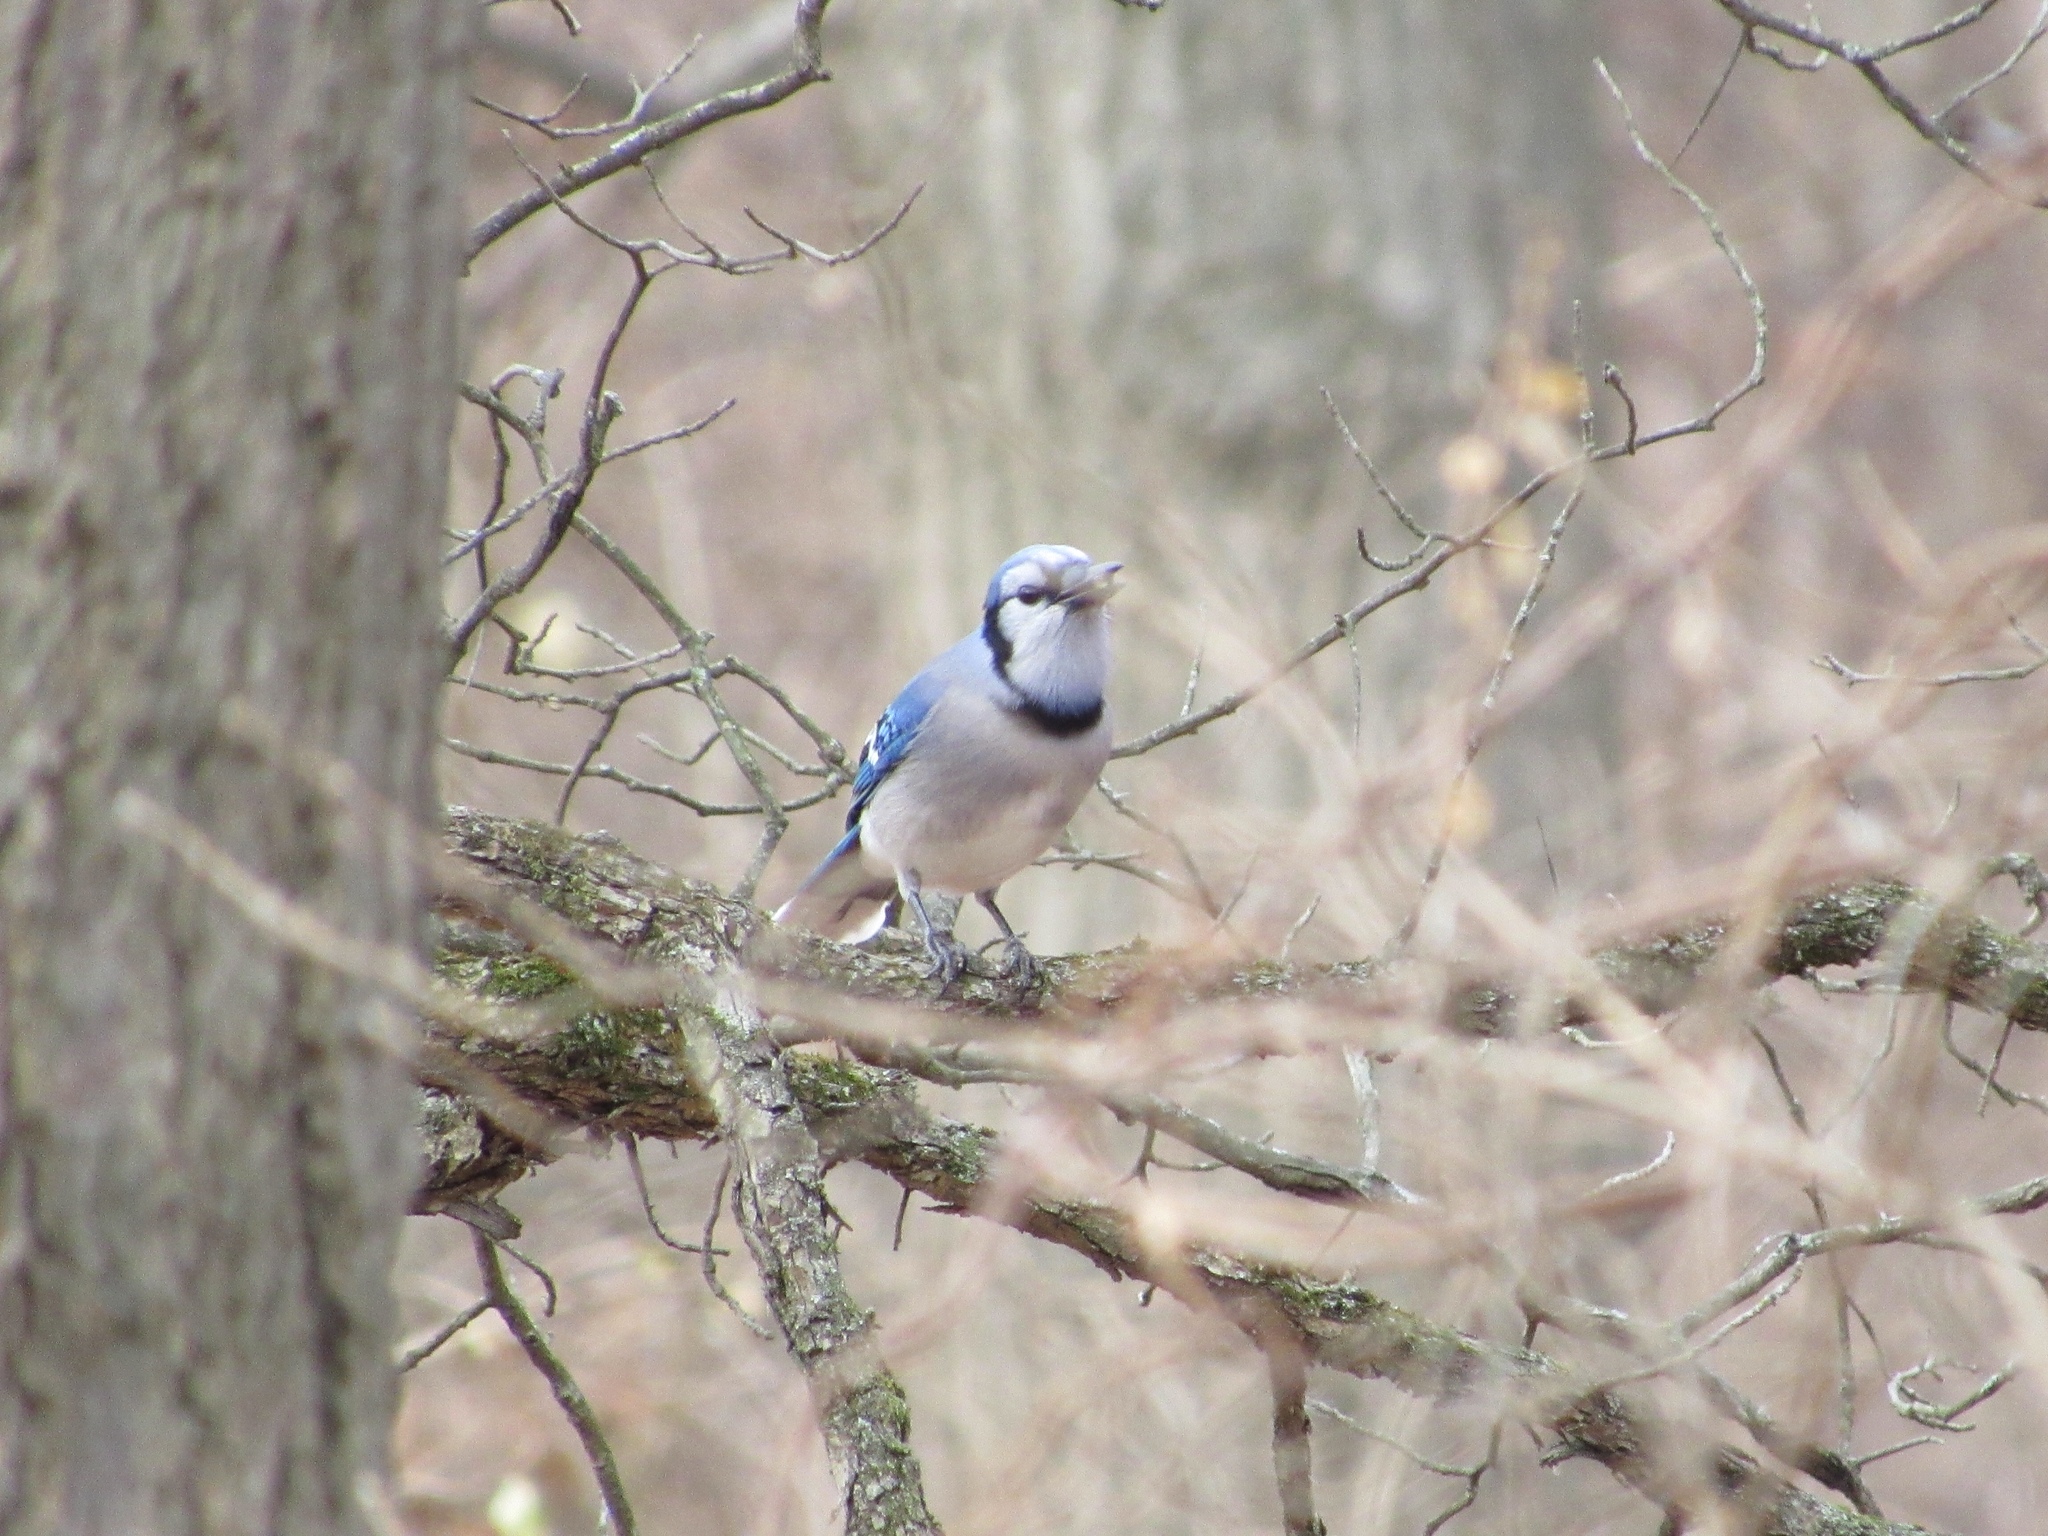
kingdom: Animalia
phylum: Chordata
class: Aves
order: Passeriformes
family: Corvidae
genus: Cyanocitta
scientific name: Cyanocitta cristata
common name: Blue jay
